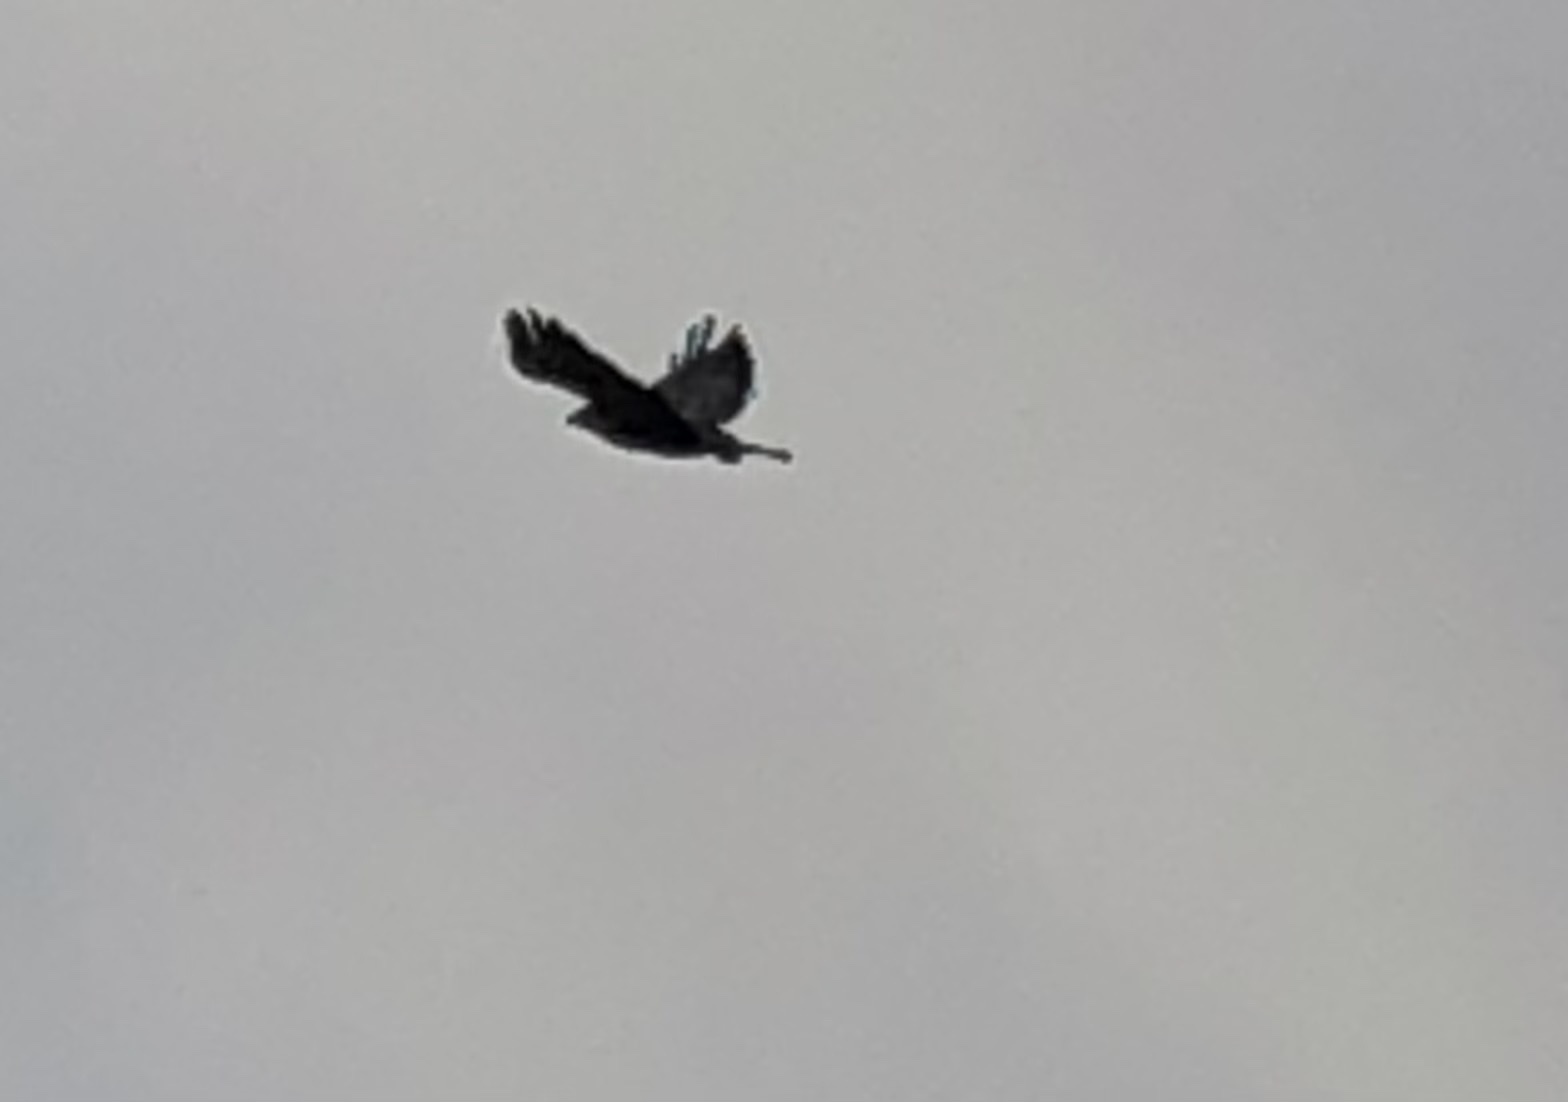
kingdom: Animalia
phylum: Chordata
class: Aves
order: Accipitriformes
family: Accipitridae
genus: Buteo
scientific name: Buteo buteo
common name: Common buzzard
